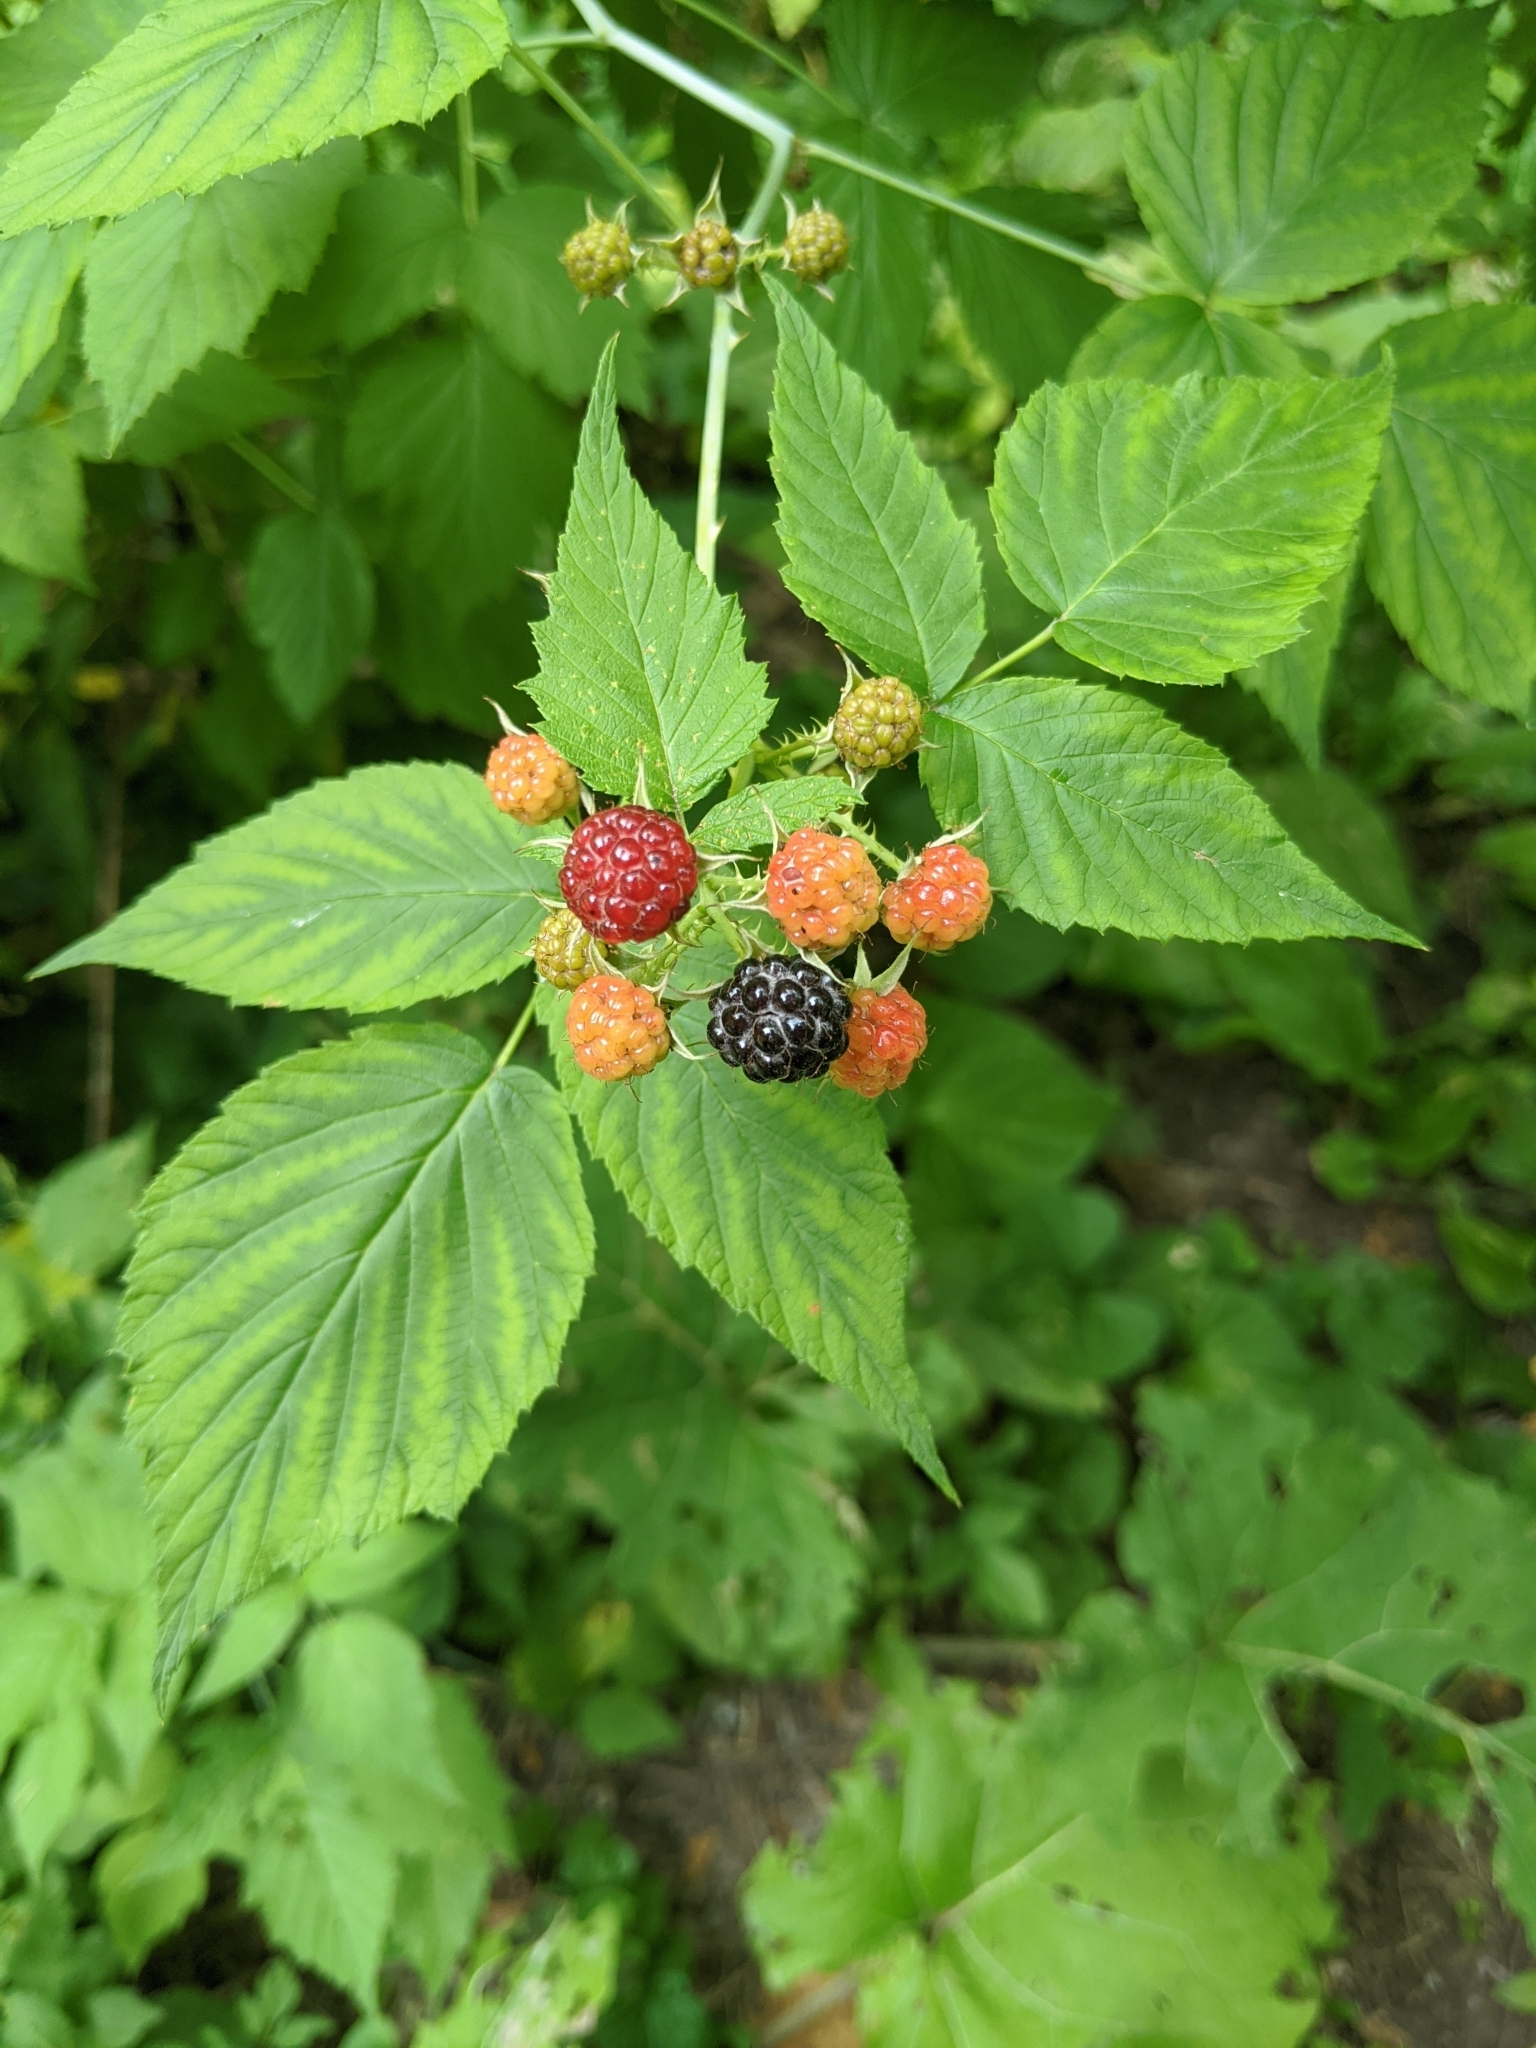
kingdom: Plantae
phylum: Tracheophyta
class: Magnoliopsida
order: Rosales
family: Rosaceae
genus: Rubus
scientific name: Rubus occidentalis
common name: Black raspberry
